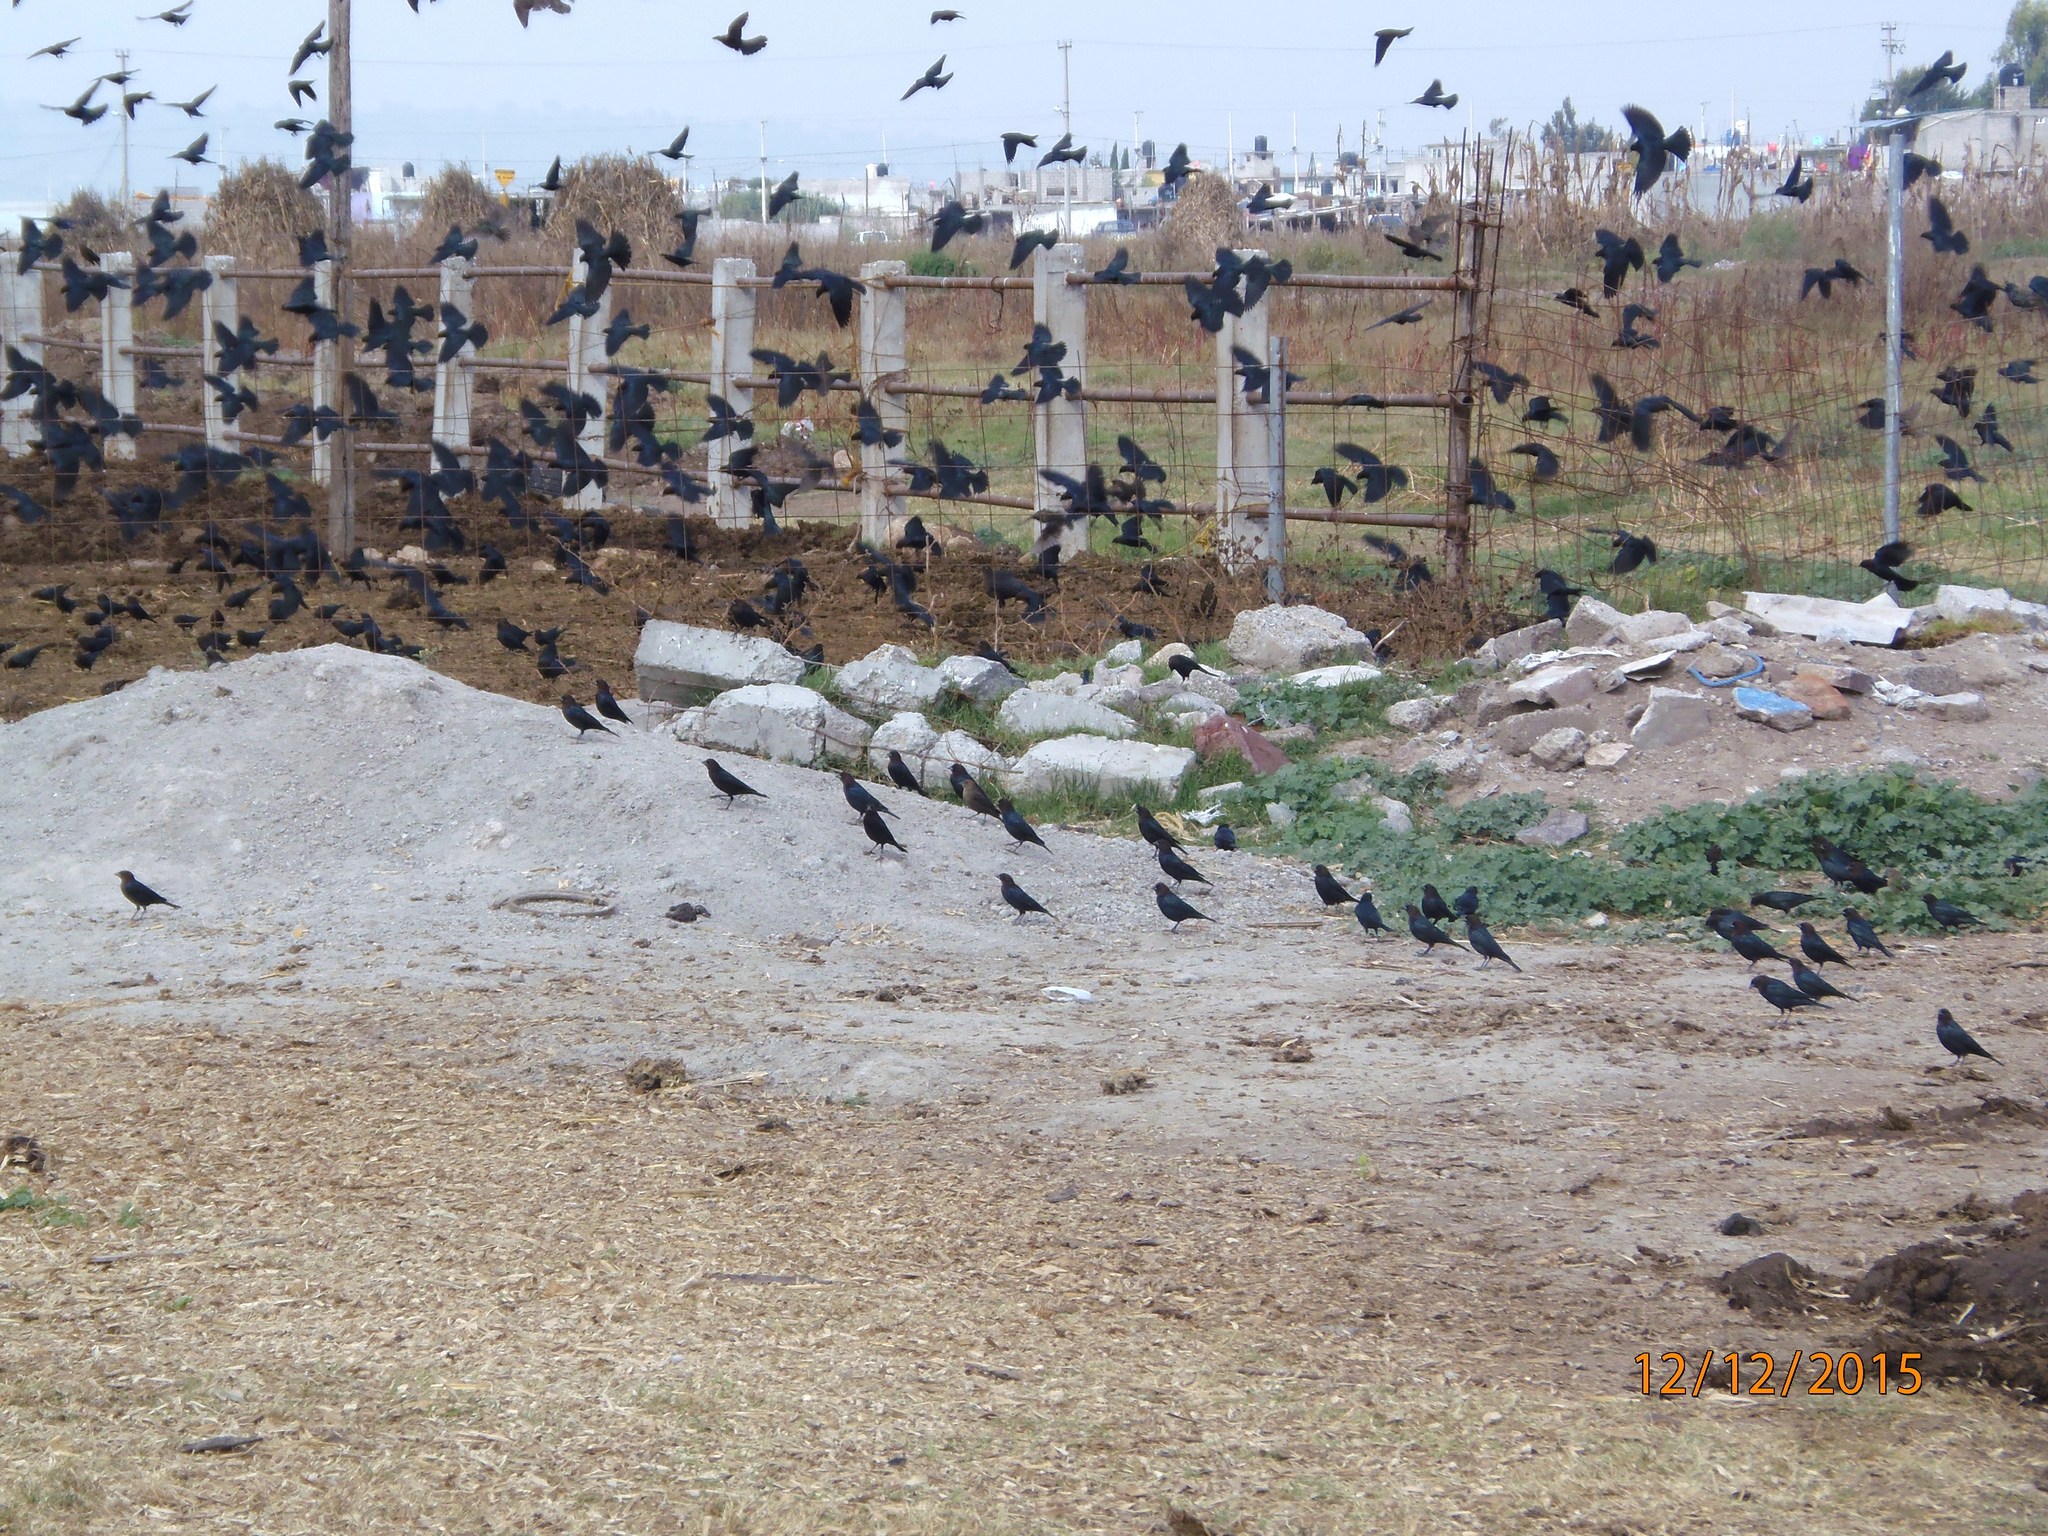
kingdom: Animalia
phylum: Chordata
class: Aves
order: Passeriformes
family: Icteridae
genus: Molothrus
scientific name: Molothrus ater
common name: Brown-headed cowbird
